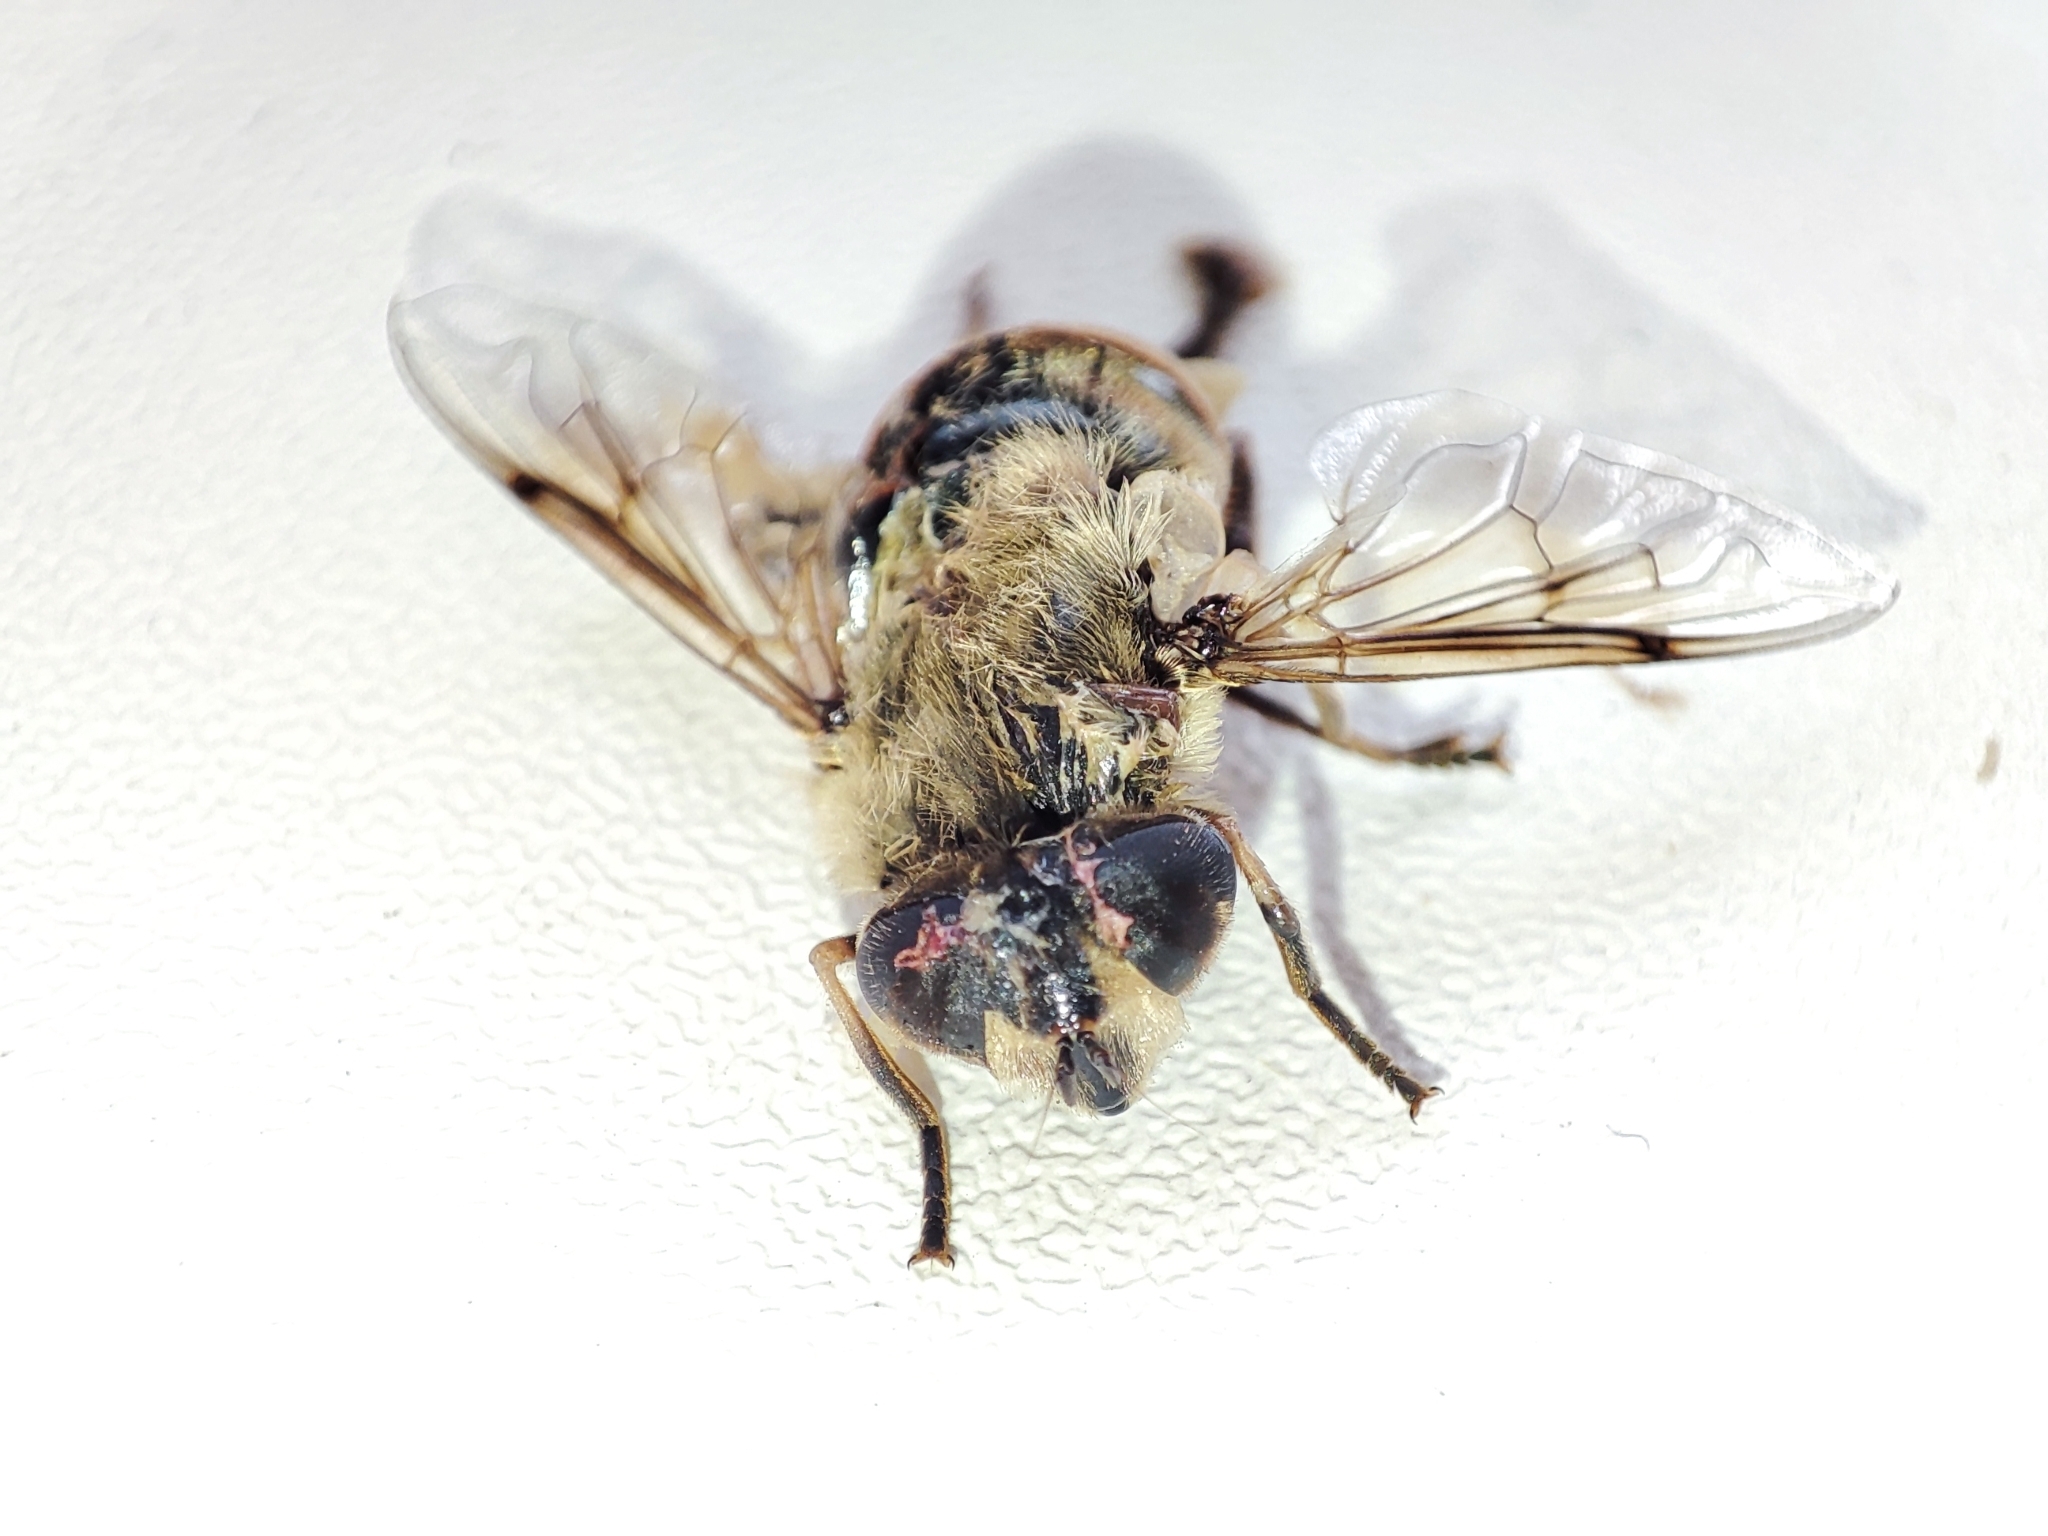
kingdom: Animalia
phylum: Arthropoda
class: Insecta
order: Diptera
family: Syrphidae
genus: Eristalis
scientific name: Eristalis tenax
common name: Drone fly
